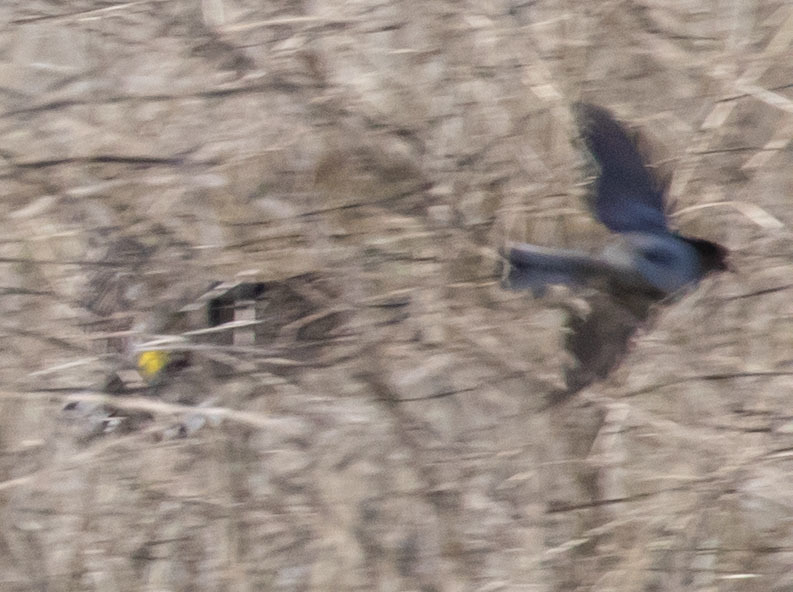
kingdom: Animalia
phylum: Chordata
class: Aves
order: Passeriformes
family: Parulidae
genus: Setophaga
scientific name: Setophaga coronata
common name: Myrtle warbler
